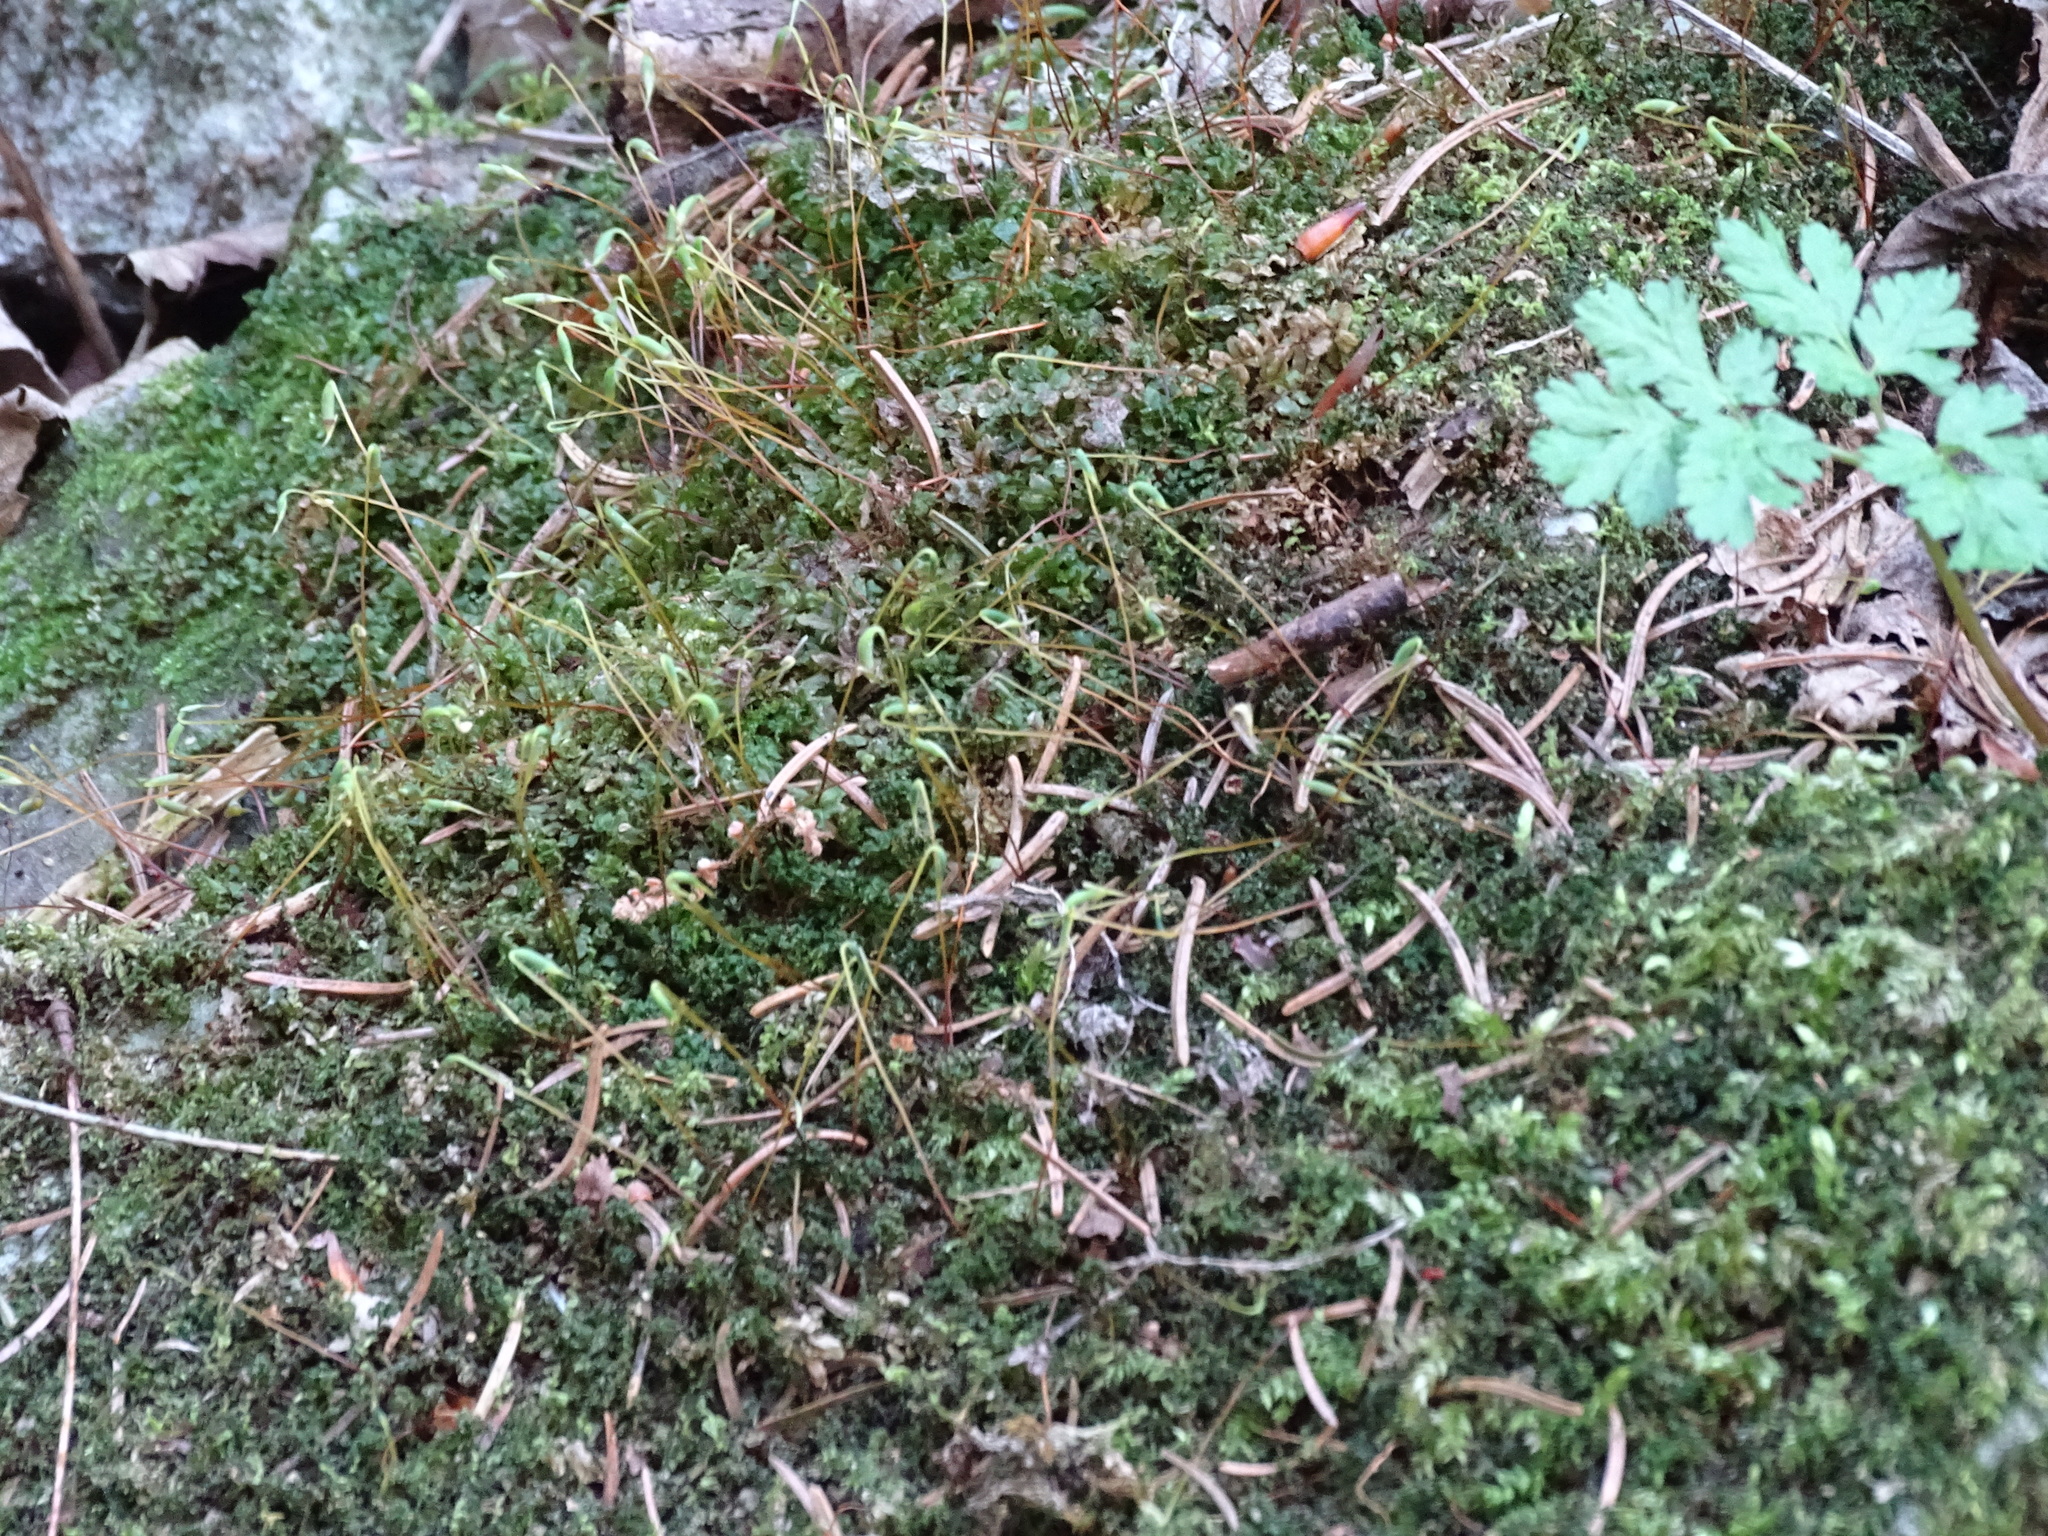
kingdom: Plantae
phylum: Bryophyta
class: Bryopsida
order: Bryales
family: Mniaceae
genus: Plagiomnium
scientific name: Plagiomnium rostratum
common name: Long-beaked leafy moss
